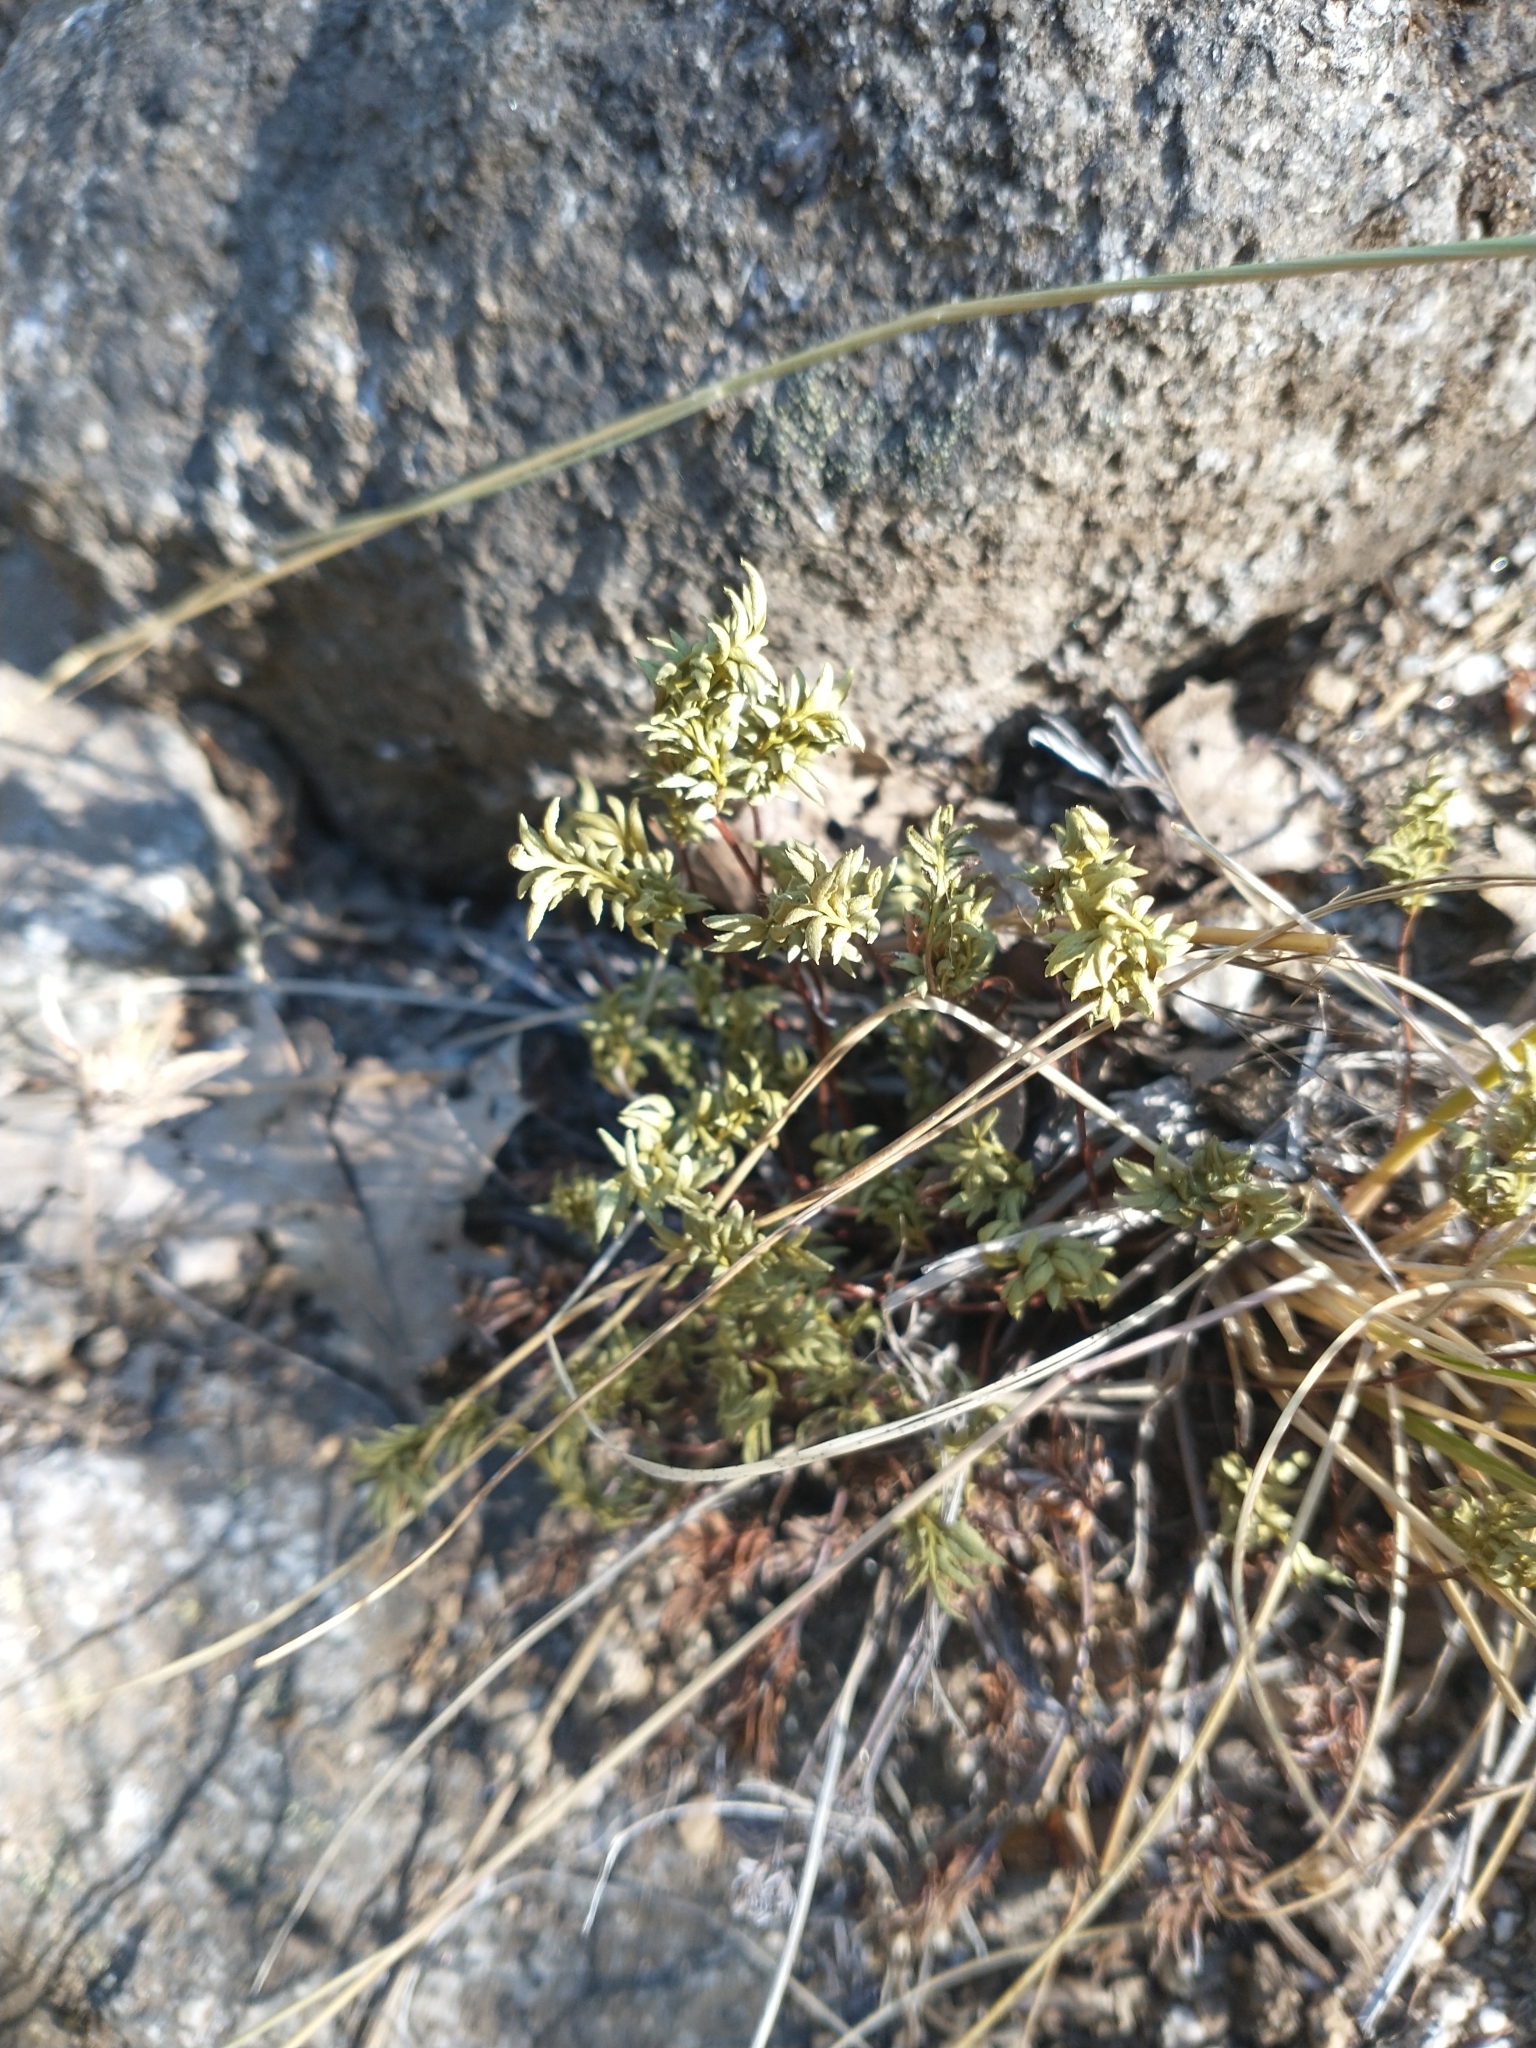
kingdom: Plantae
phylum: Tracheophyta
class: Polypodiopsida
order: Polypodiales
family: Pteridaceae
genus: Aspidotis
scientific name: Aspidotis densa
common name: Indian's dream
